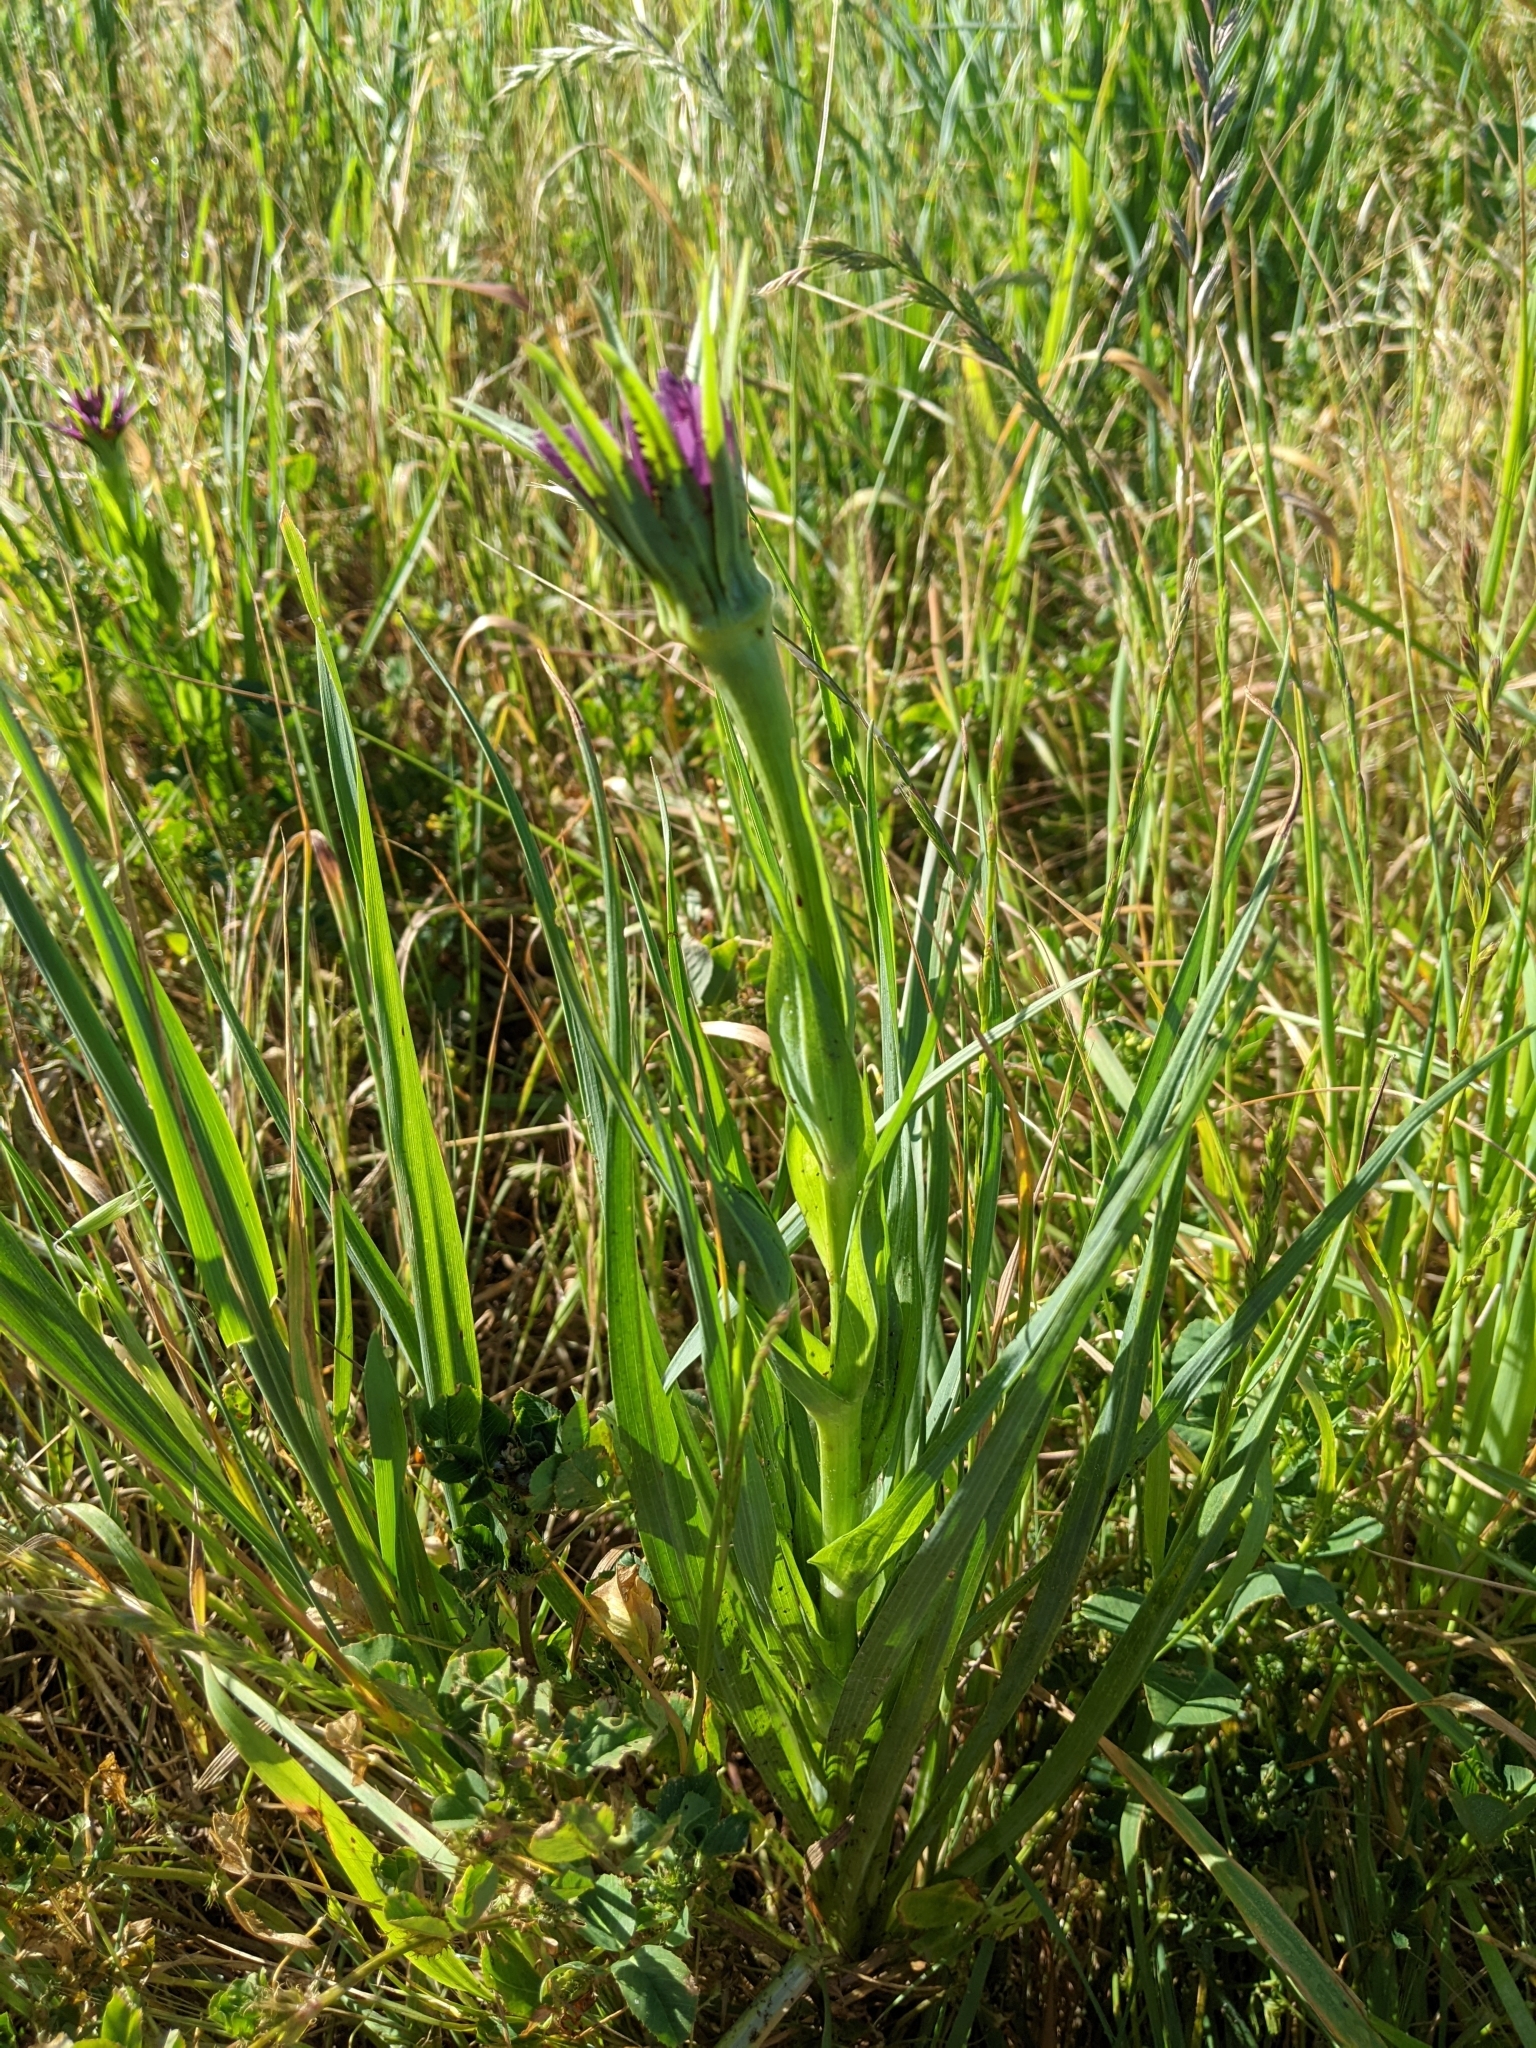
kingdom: Plantae
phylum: Tracheophyta
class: Magnoliopsida
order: Asterales
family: Asteraceae
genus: Tragopogon
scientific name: Tragopogon porrifolius
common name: Salsify
